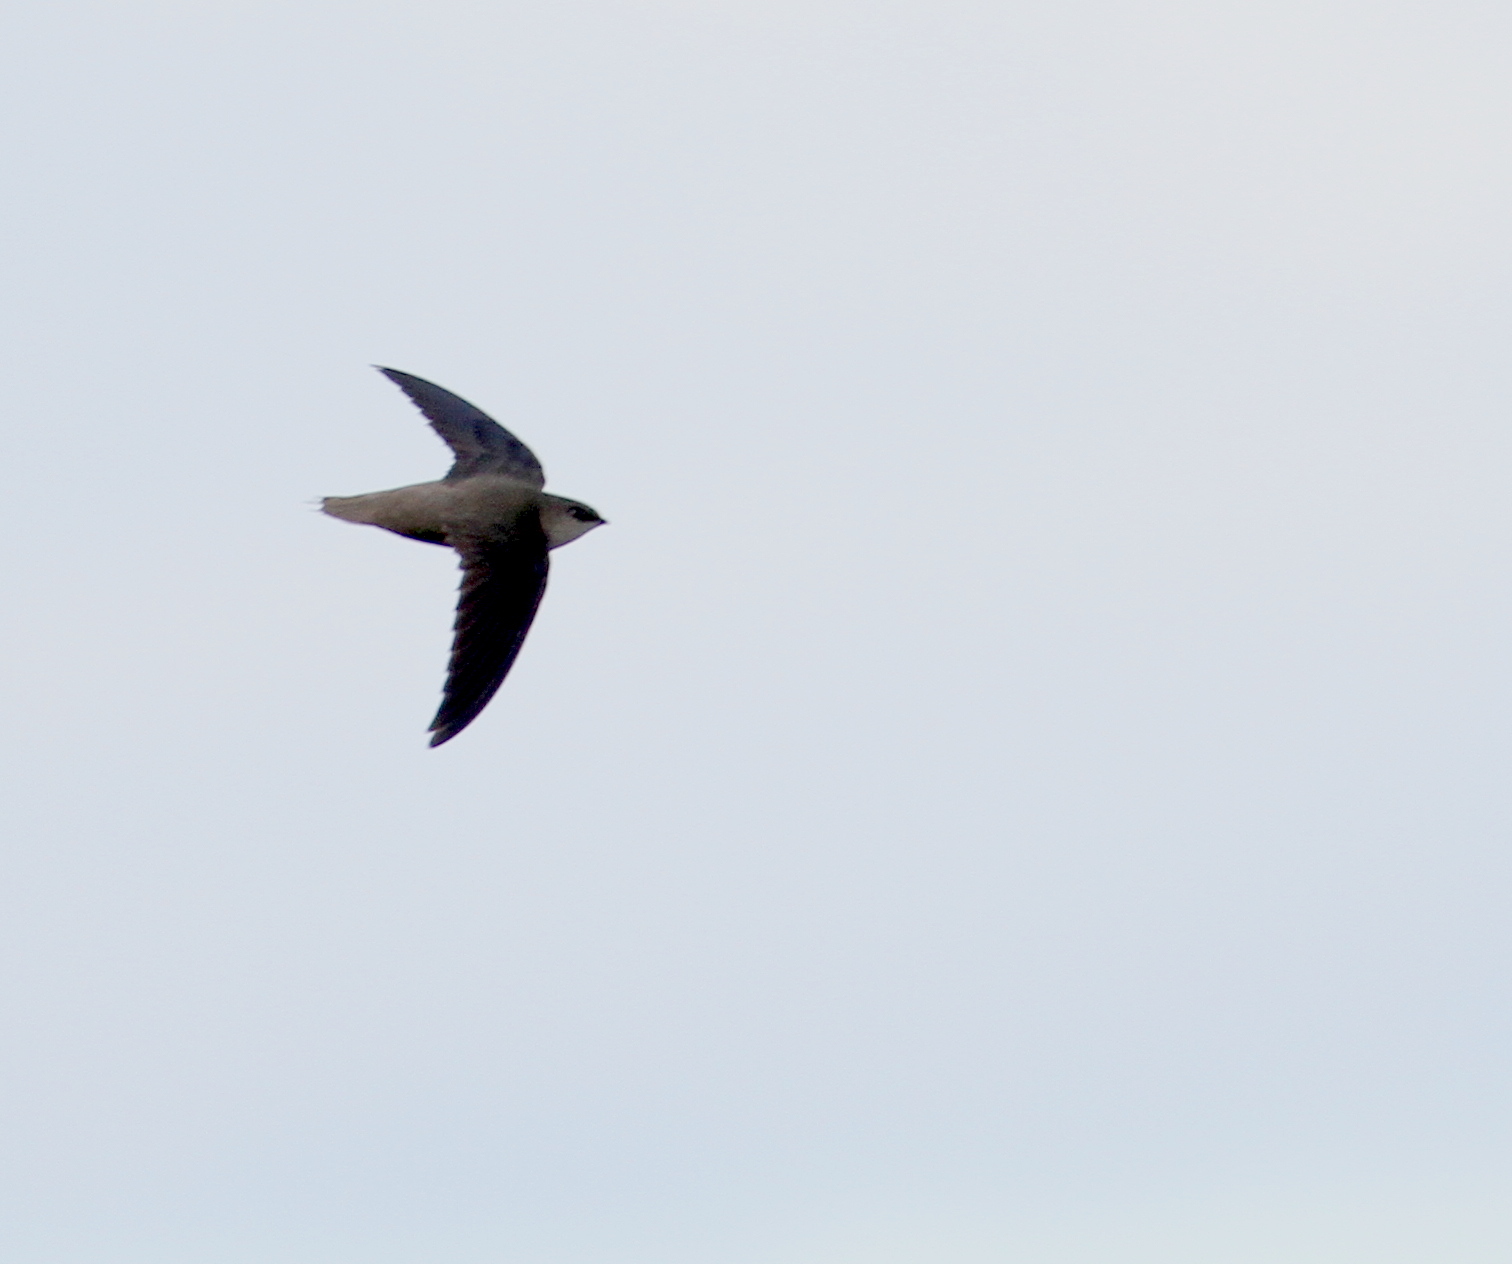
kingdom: Animalia
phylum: Chordata
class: Aves
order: Apodiformes
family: Apodidae
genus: Chaetura
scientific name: Chaetura pelagica
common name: Chimney swift
